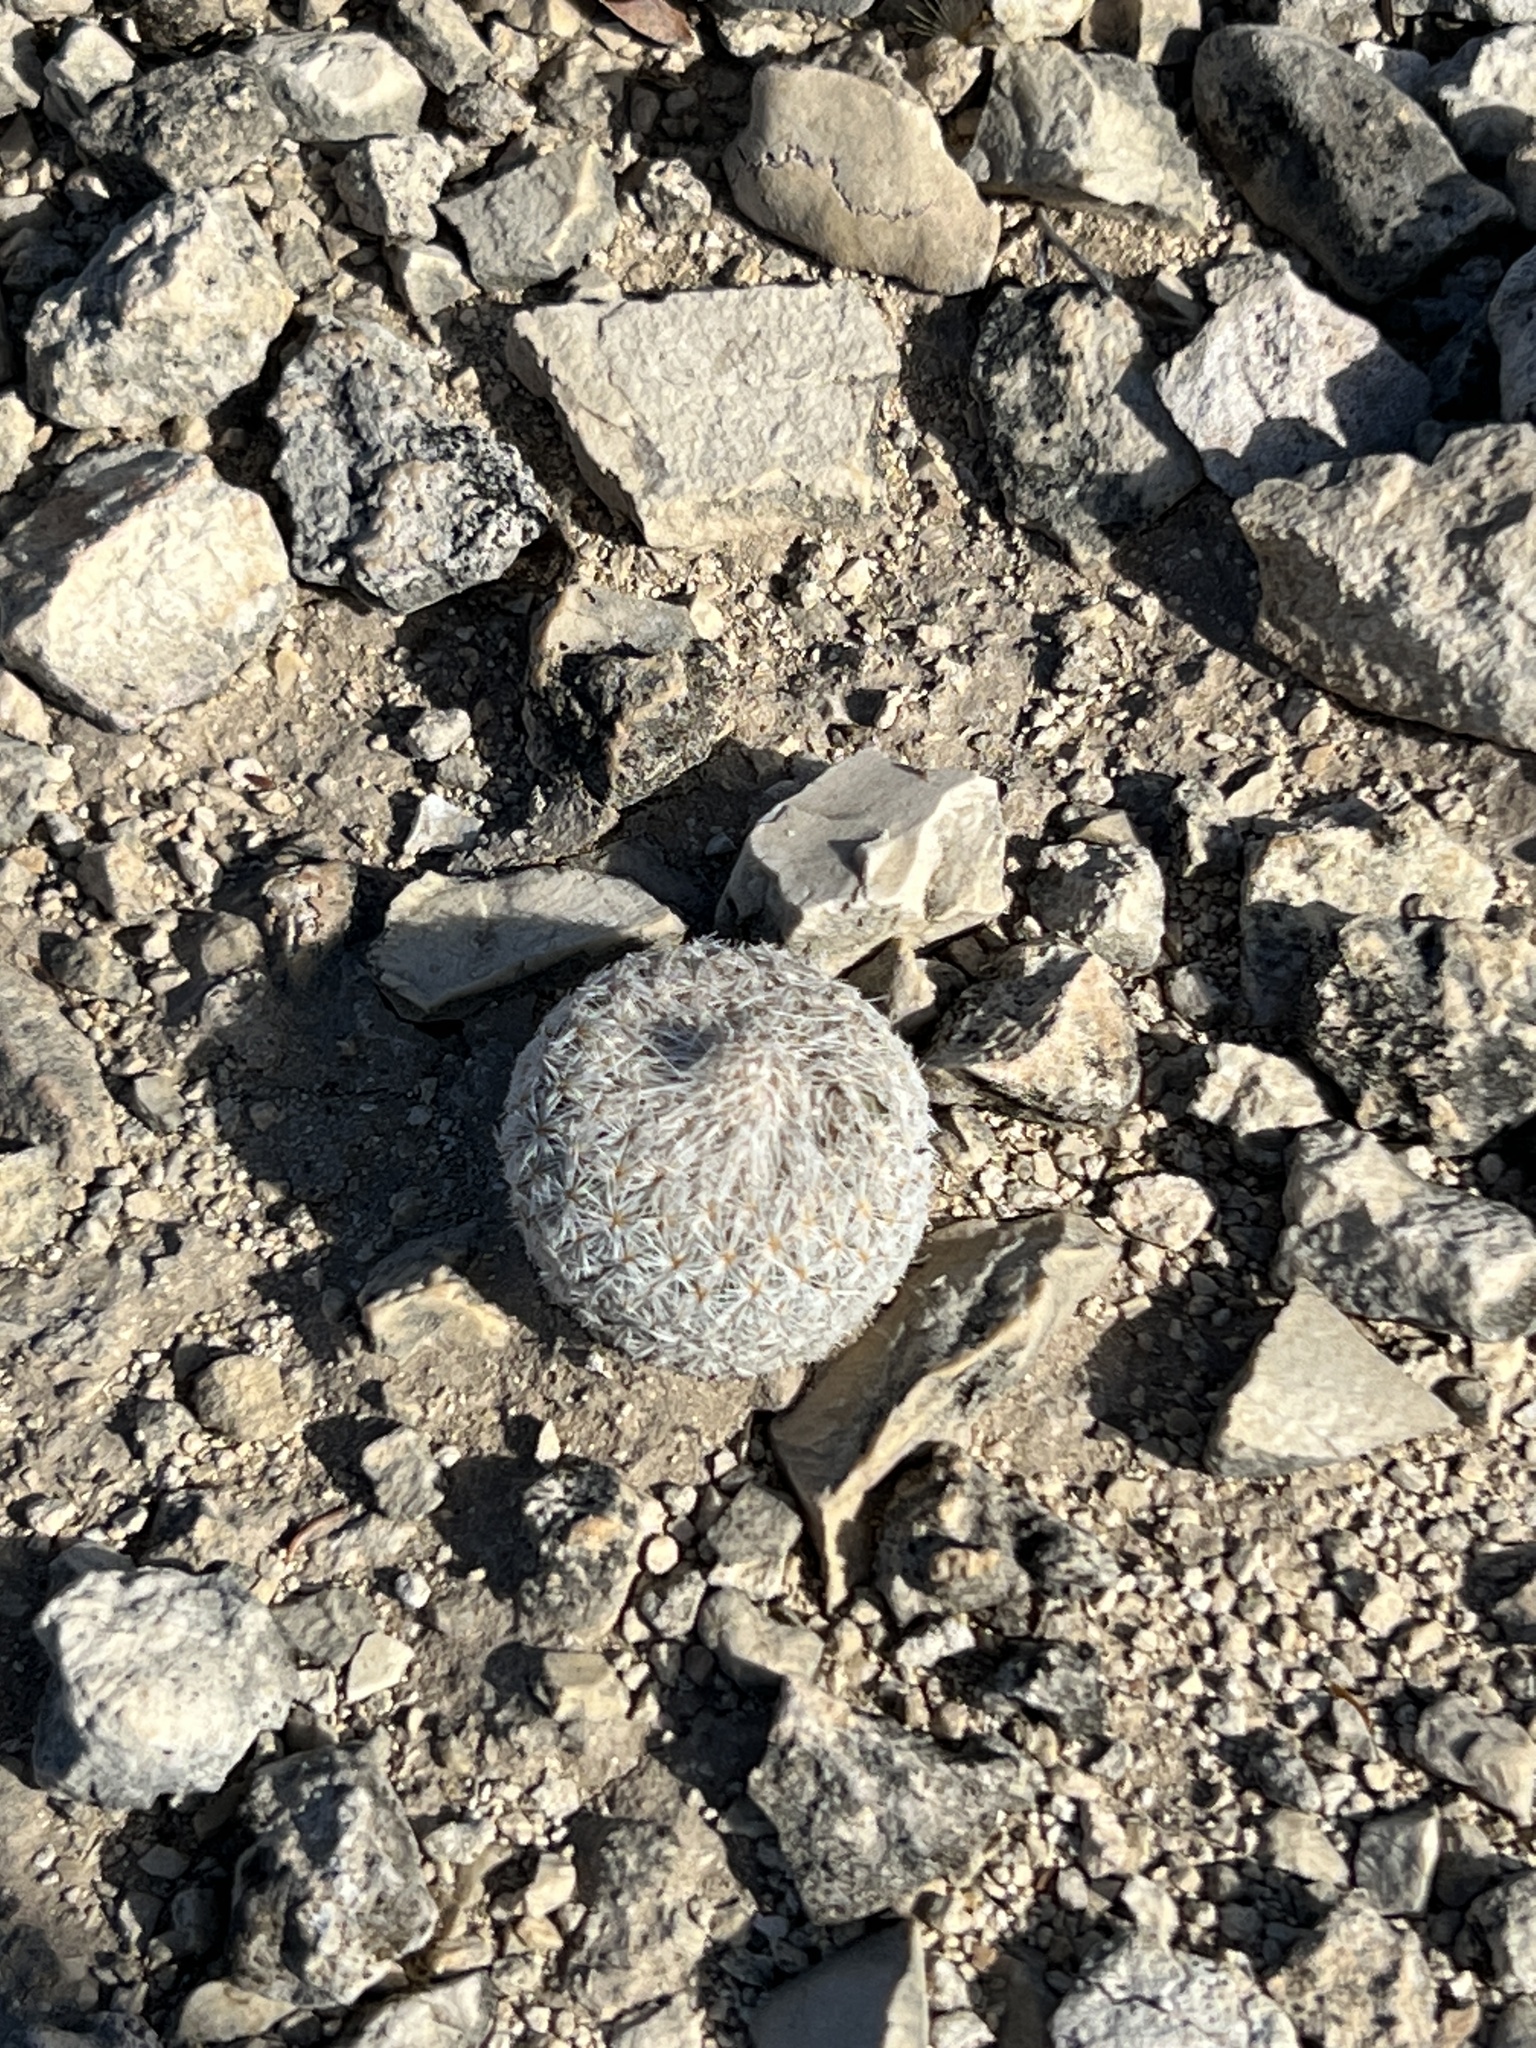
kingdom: Plantae
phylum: Tracheophyta
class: Magnoliopsida
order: Caryophyllales
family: Cactaceae
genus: Epithelantha
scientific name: Epithelantha micromeris
